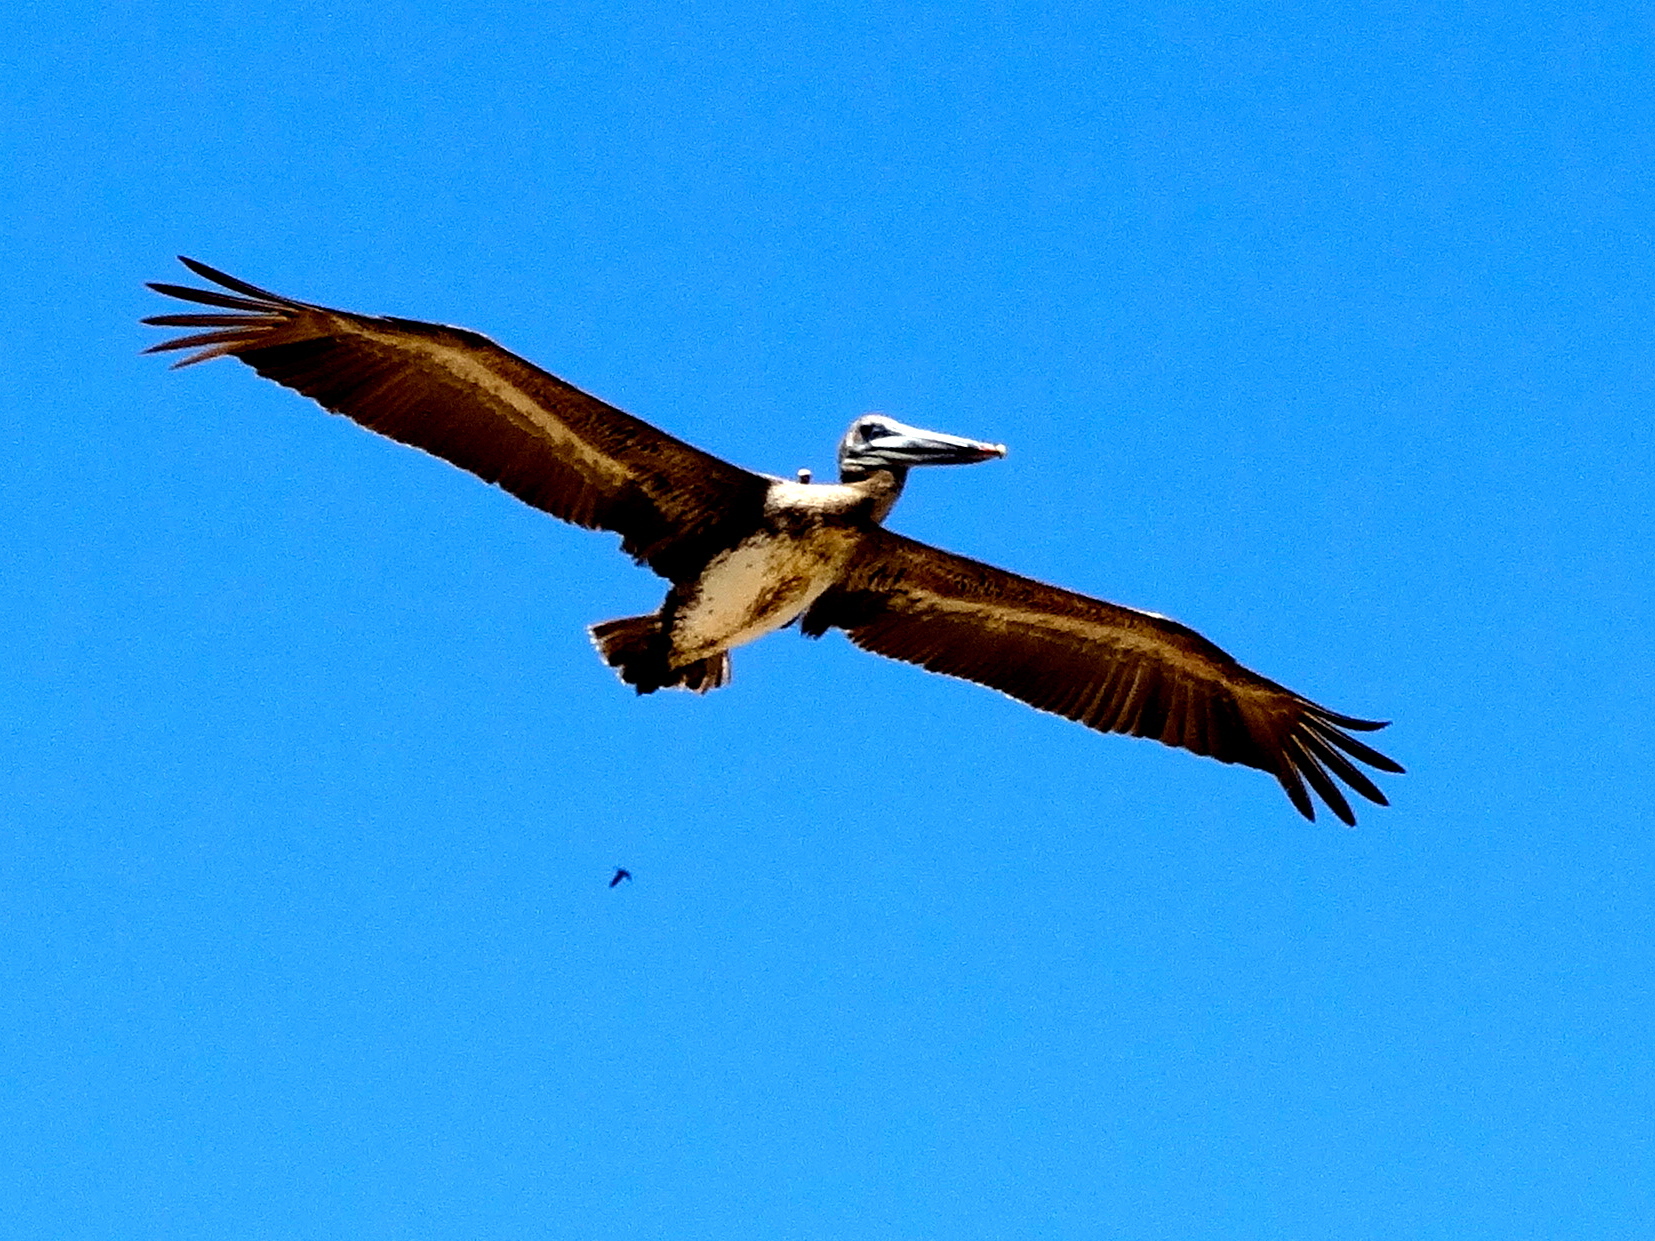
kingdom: Animalia
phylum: Chordata
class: Aves
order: Pelecaniformes
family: Pelecanidae
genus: Pelecanus
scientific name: Pelecanus occidentalis
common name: Brown pelican
